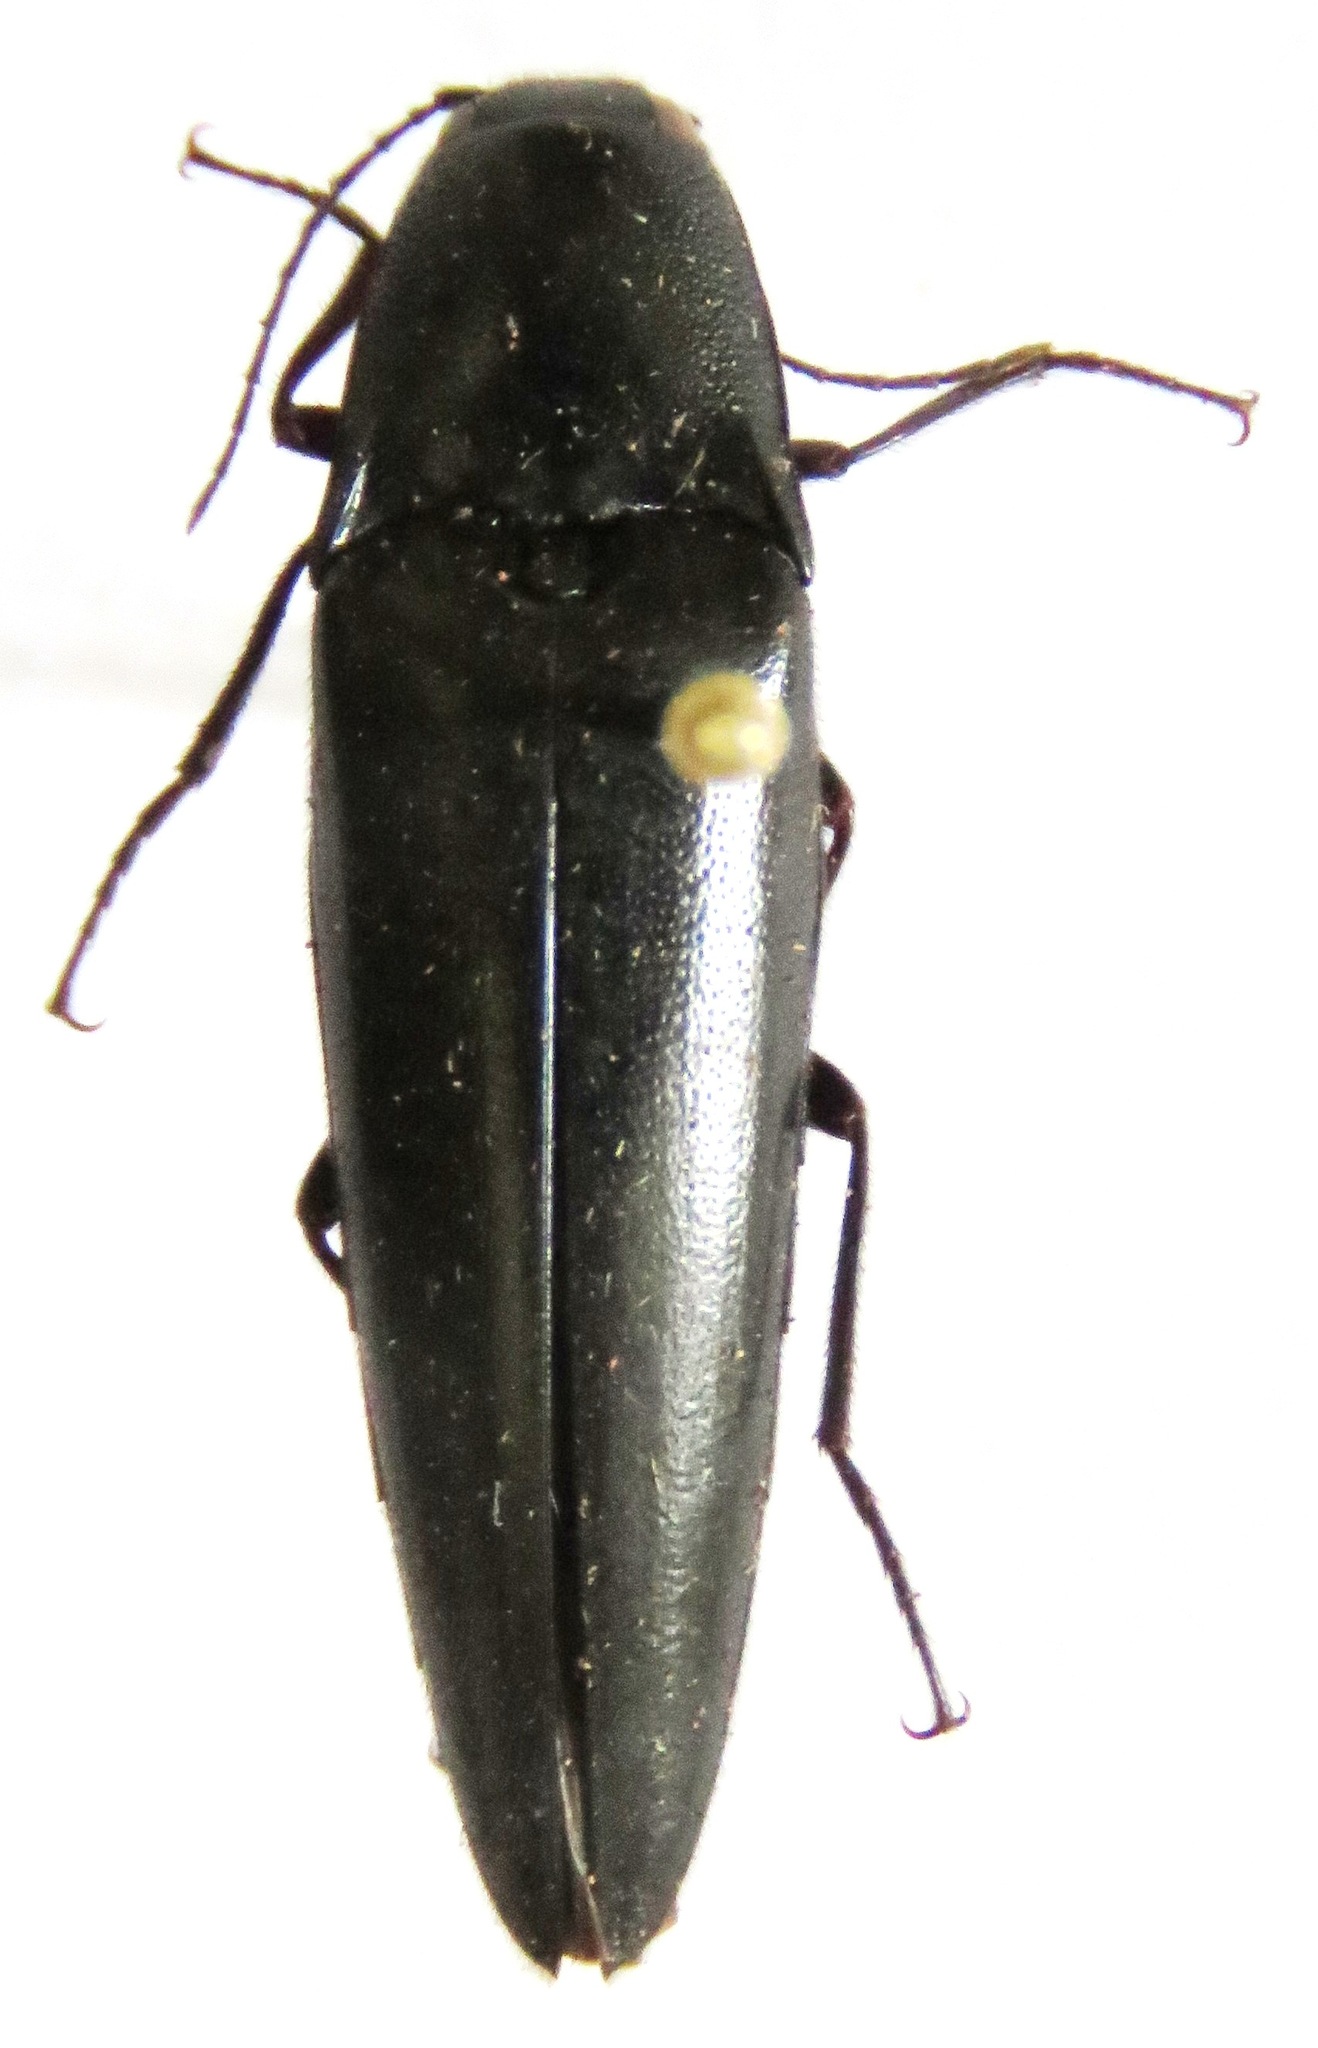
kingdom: Animalia
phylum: Arthropoda
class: Insecta
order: Coleoptera
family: Elateridae
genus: Orthostethus
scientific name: Orthostethus
